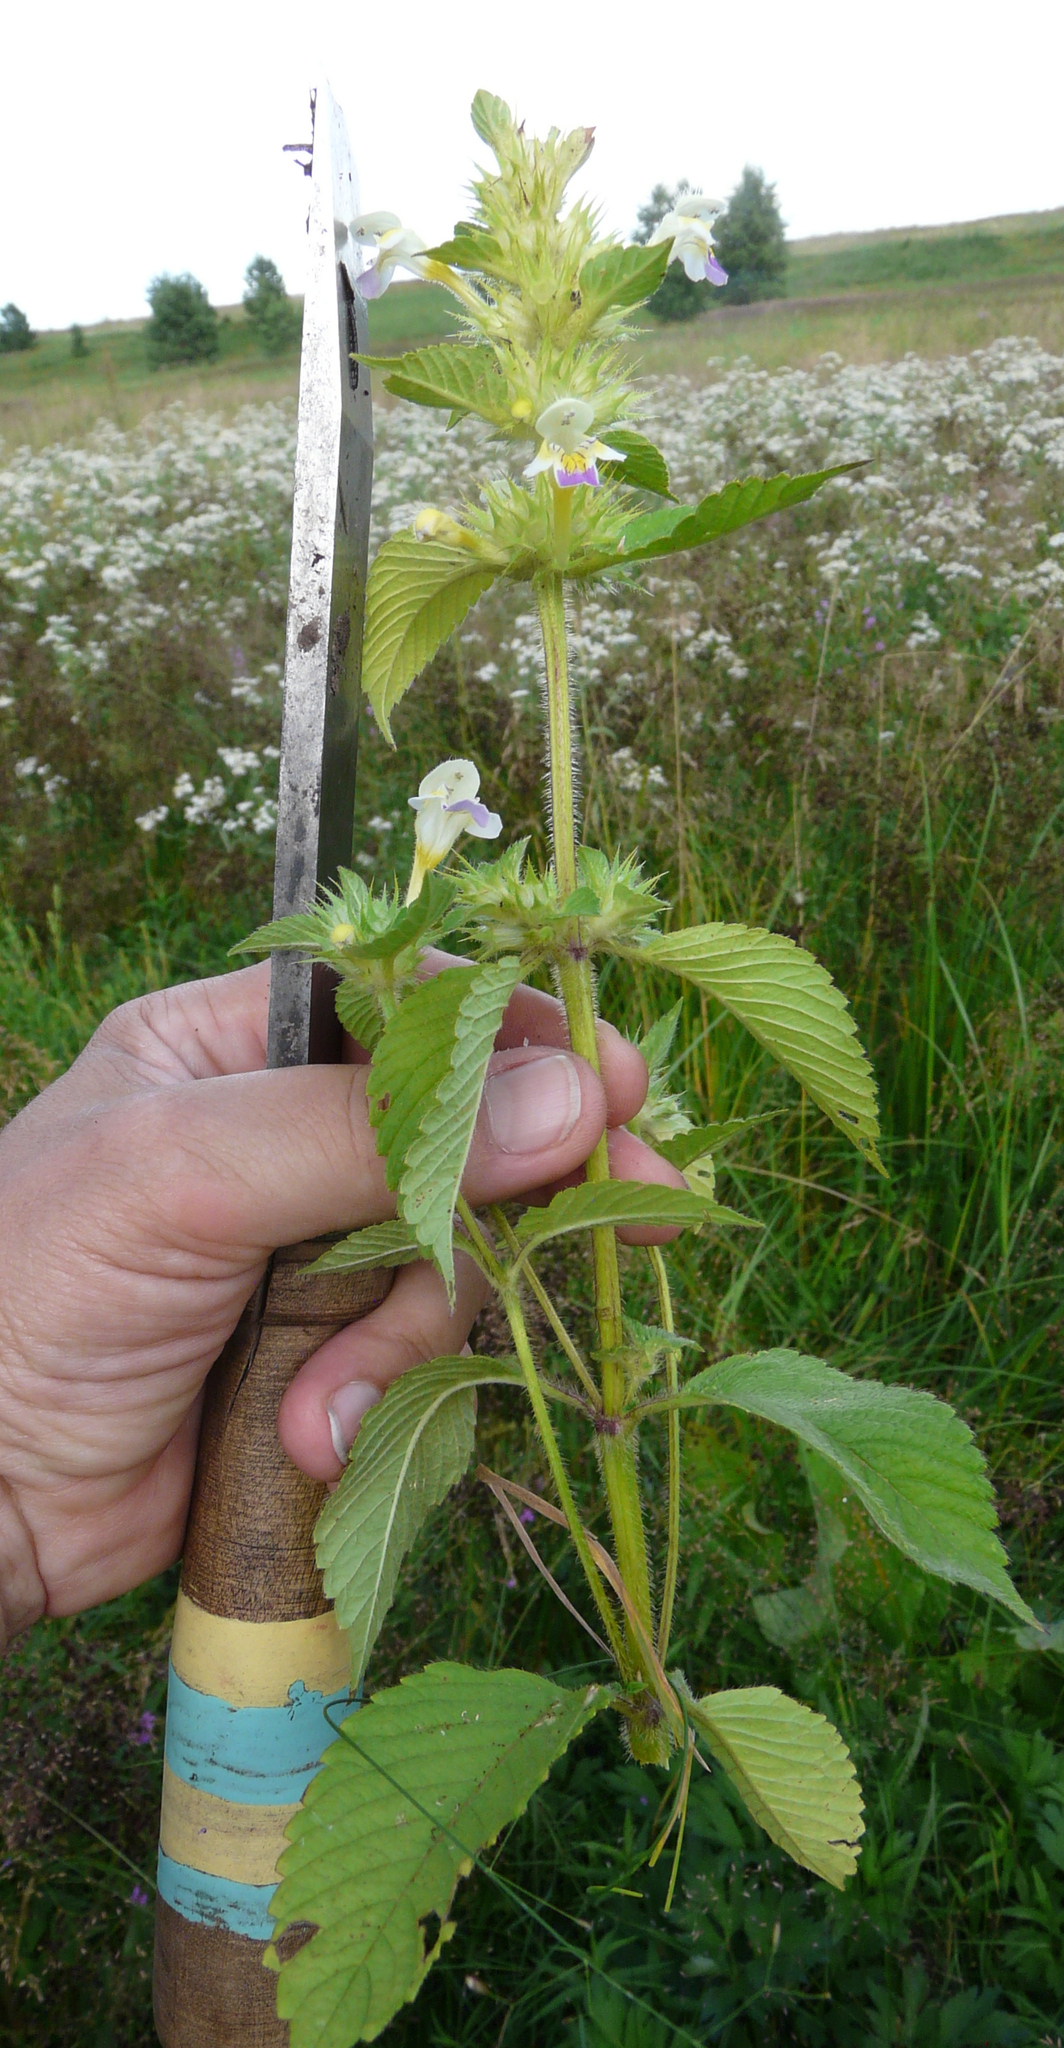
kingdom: Plantae
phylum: Tracheophyta
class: Magnoliopsida
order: Lamiales
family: Lamiaceae
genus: Galeopsis
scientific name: Galeopsis speciosa
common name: Large-flowered hemp-nettle
